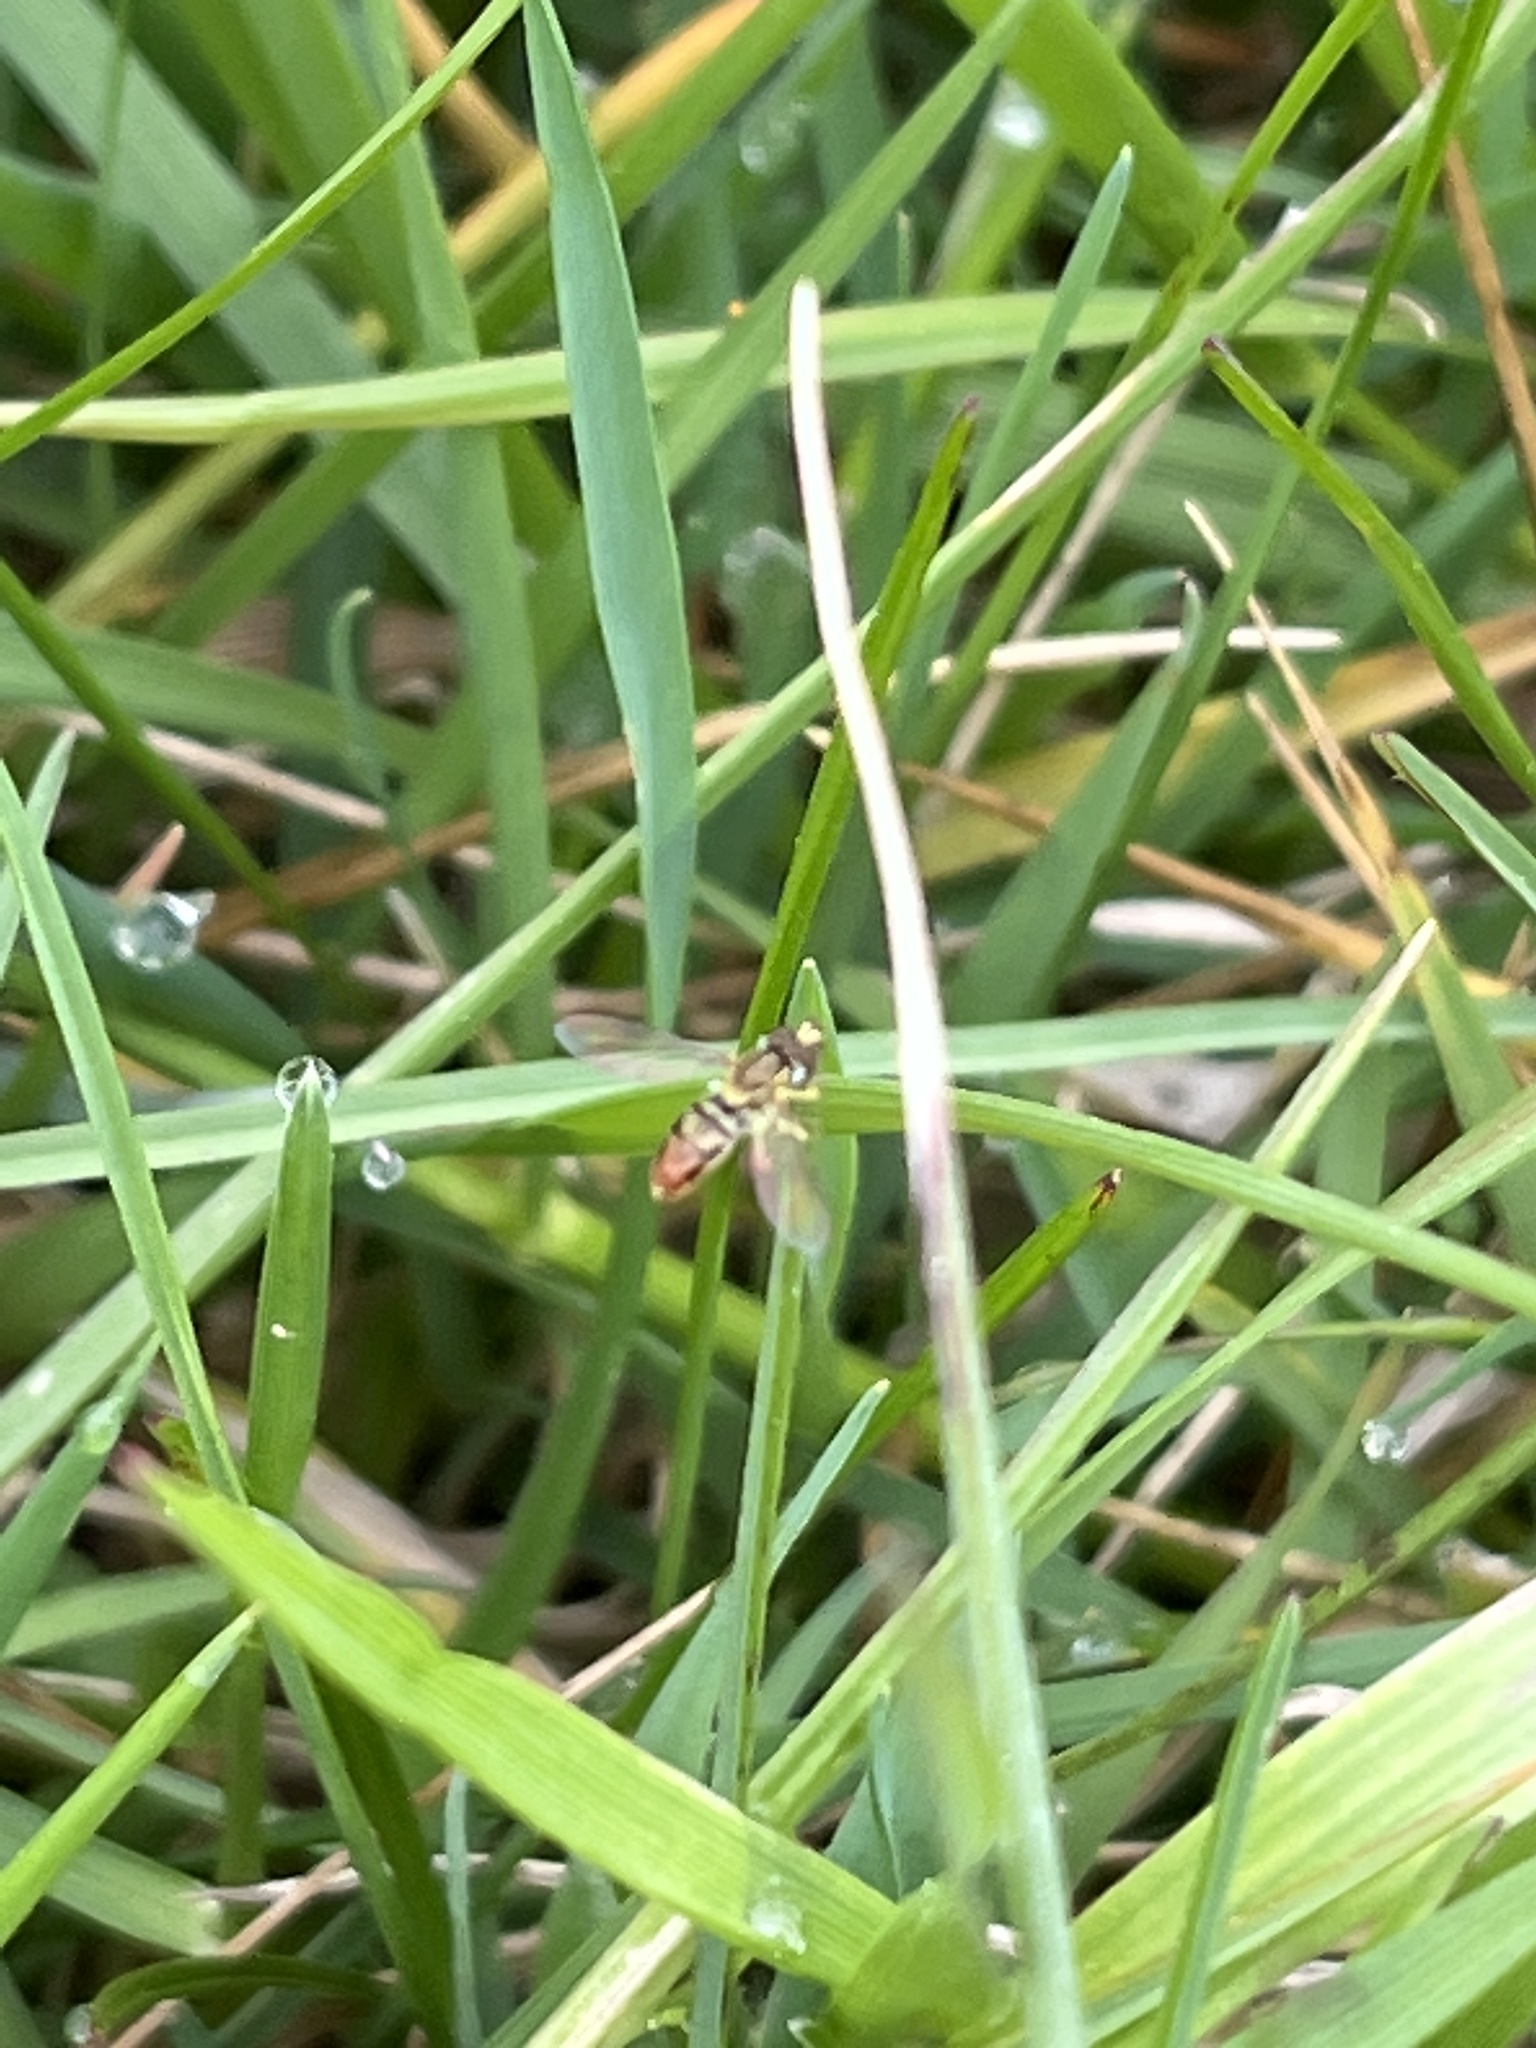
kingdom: Animalia
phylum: Arthropoda
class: Insecta
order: Diptera
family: Syrphidae
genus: Toxomerus
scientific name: Toxomerus marginatus
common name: Syrphid fly
